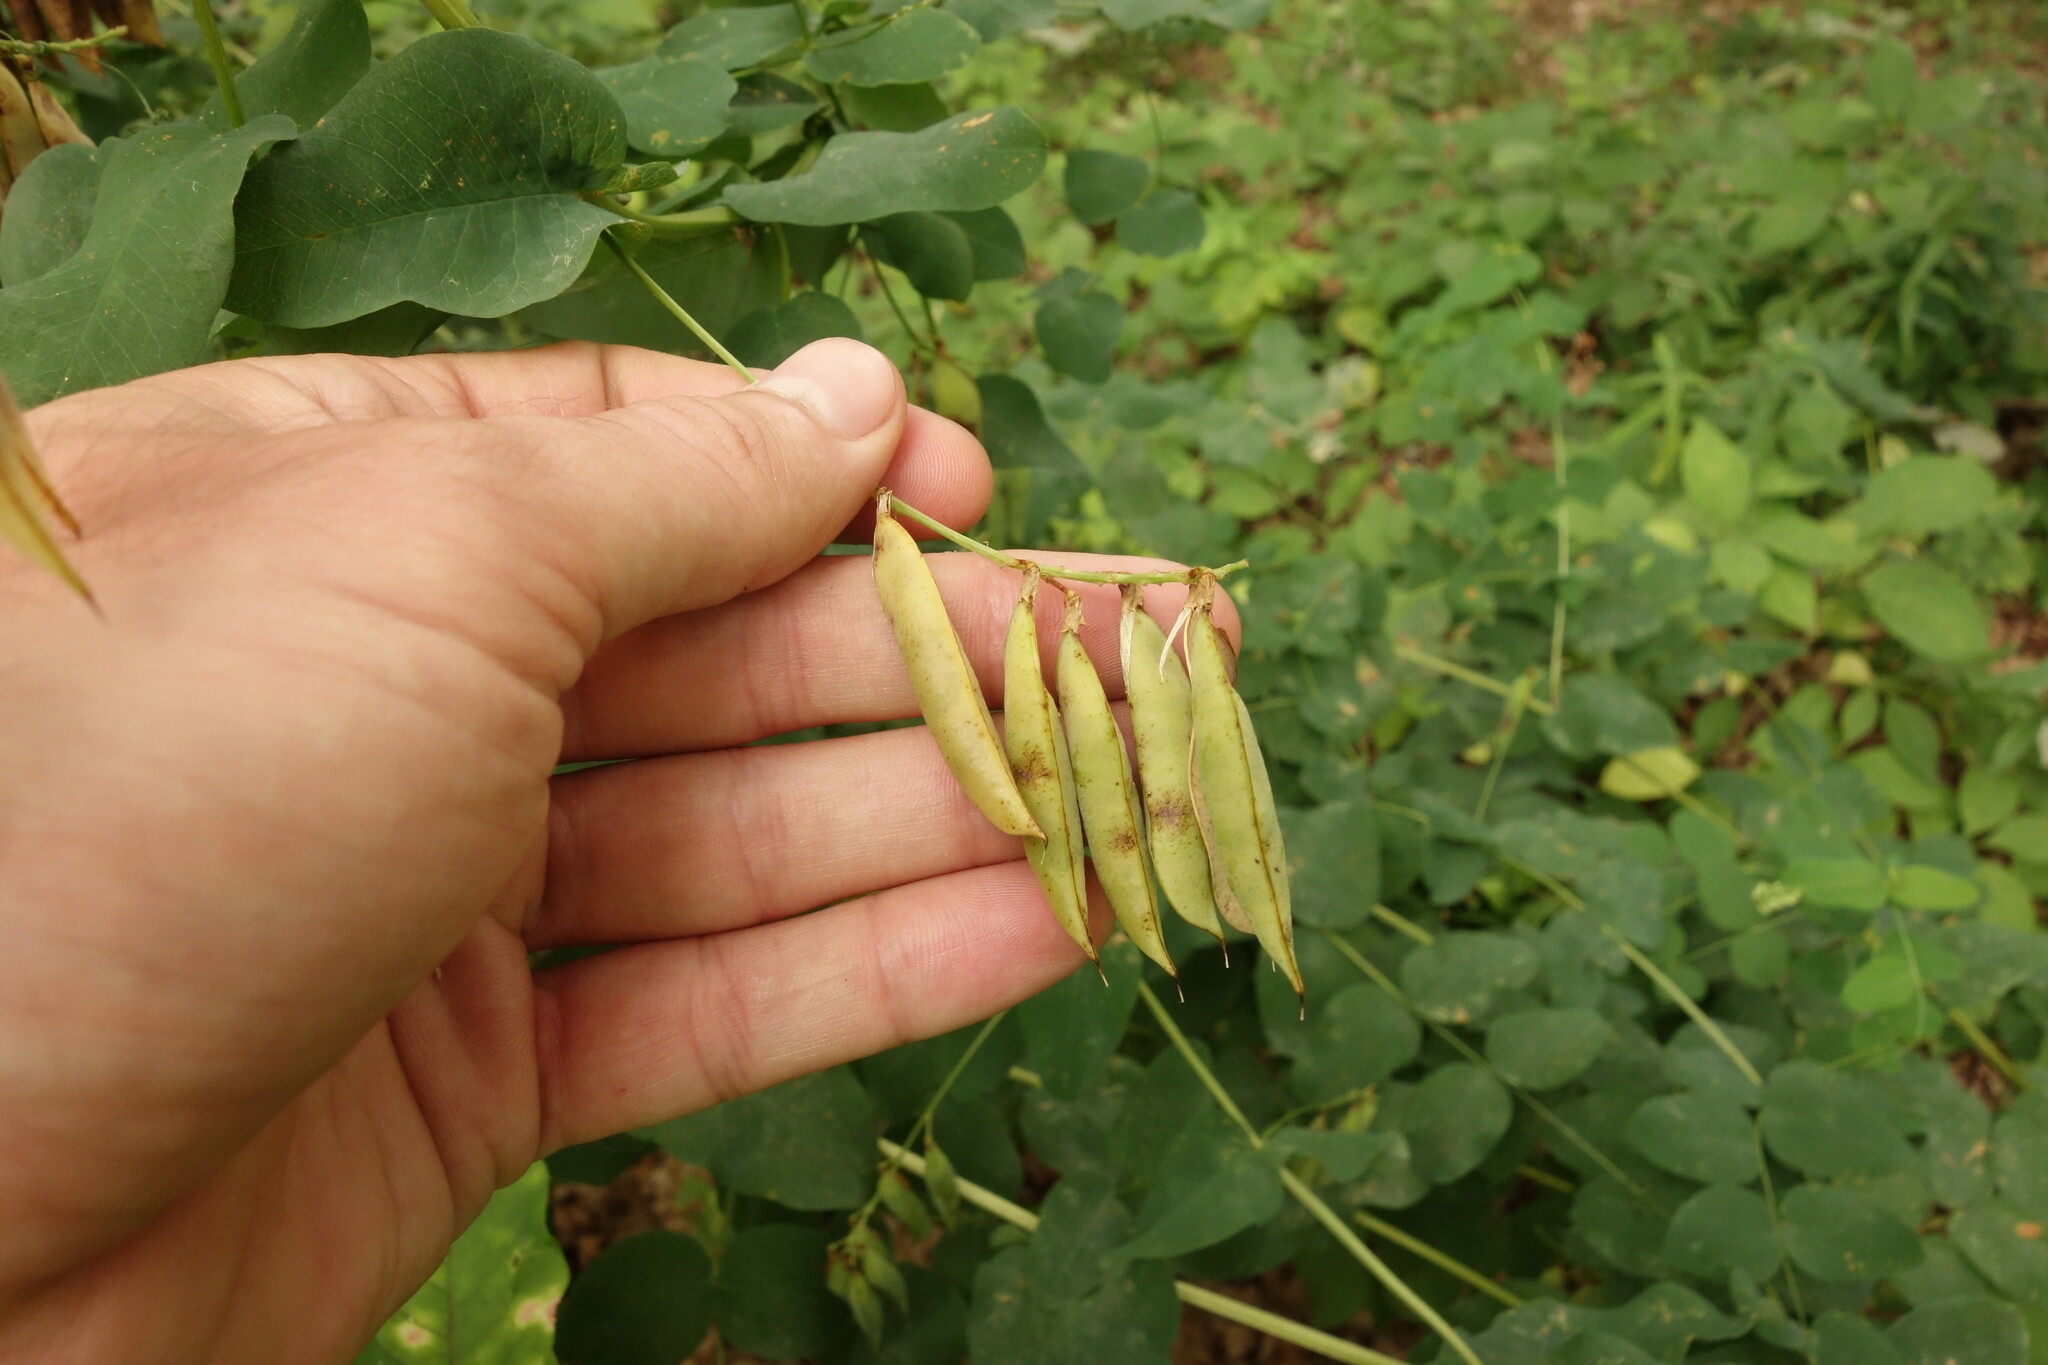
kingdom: Plantae
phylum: Tracheophyta
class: Magnoliopsida
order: Fabales
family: Fabaceae
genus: Vicia
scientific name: Vicia pisiformis
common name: Pale-flower vetch
